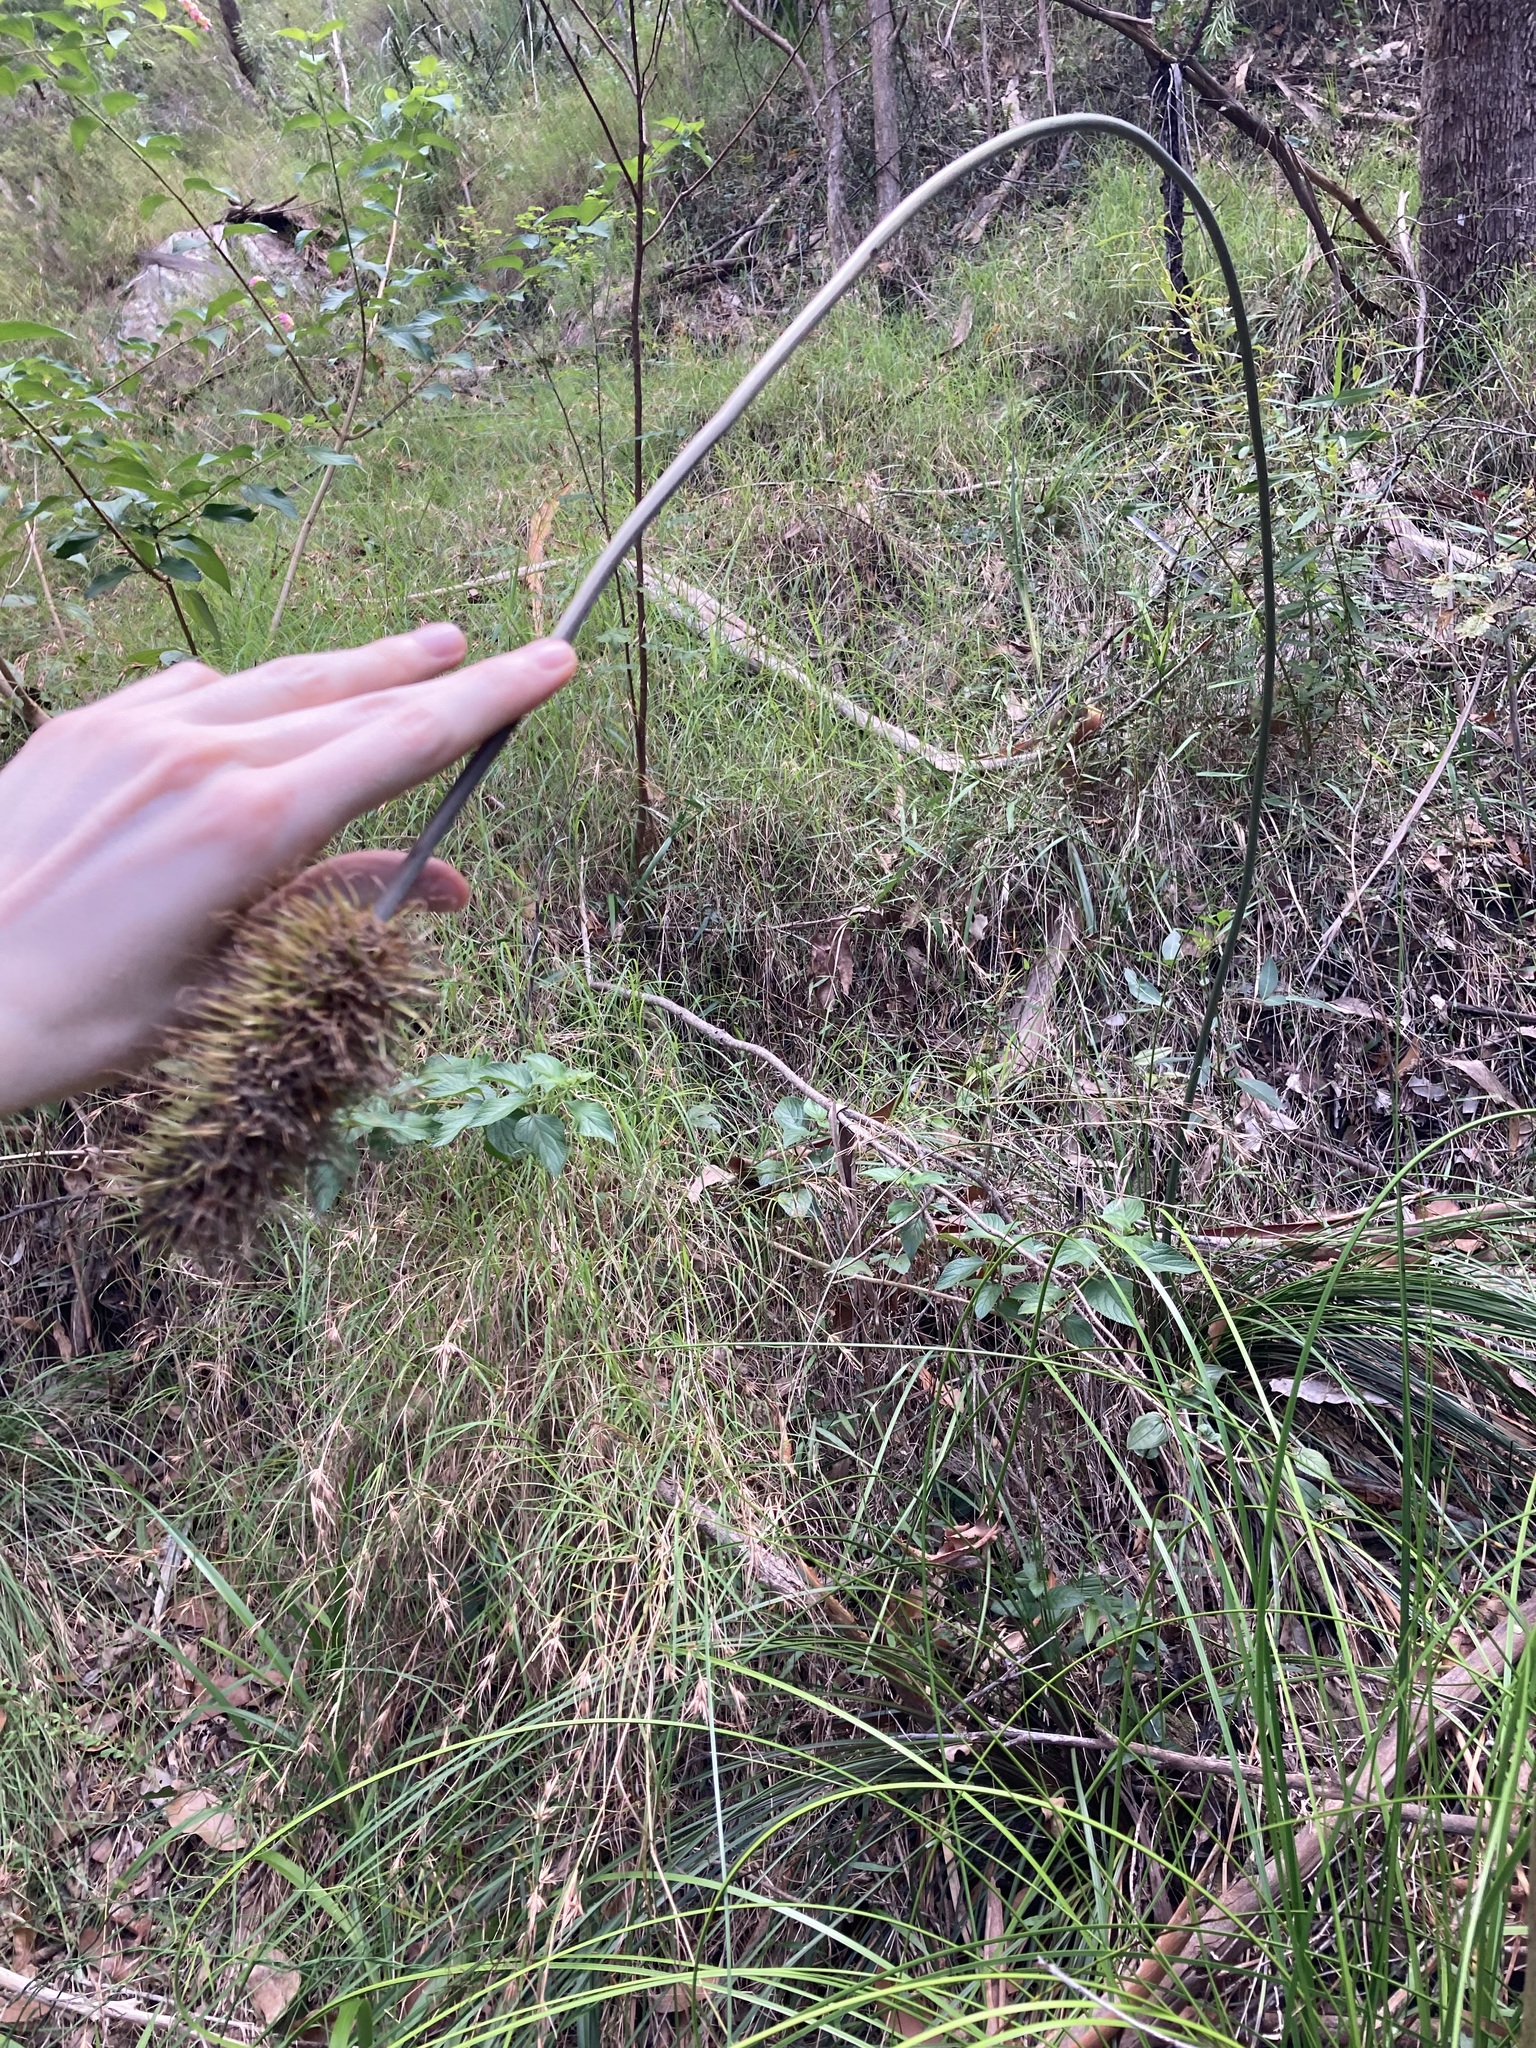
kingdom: Plantae
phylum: Tracheophyta
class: Liliopsida
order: Asparagales
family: Asphodelaceae
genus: Xanthorrhoea
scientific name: Xanthorrhoea macronema
